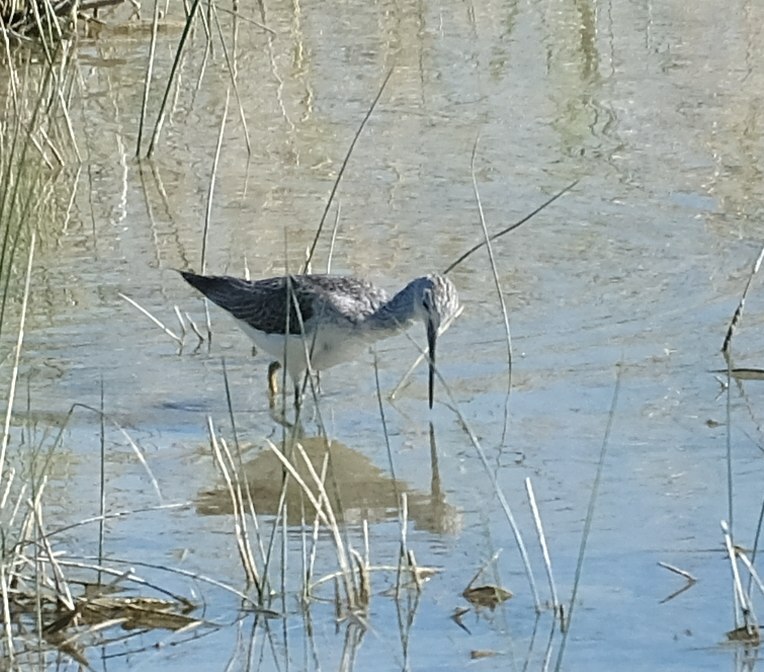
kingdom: Animalia
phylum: Chordata
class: Aves
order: Charadriiformes
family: Scolopacidae
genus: Tringa
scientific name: Tringa nebularia
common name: Common greenshank
